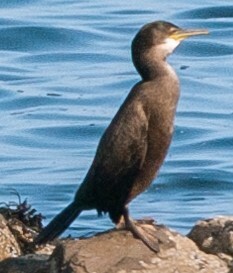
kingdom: Animalia
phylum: Chordata
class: Aves
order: Suliformes
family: Phalacrocoracidae
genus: Phalacrocorax
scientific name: Phalacrocorax aristotelis
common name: European shag
